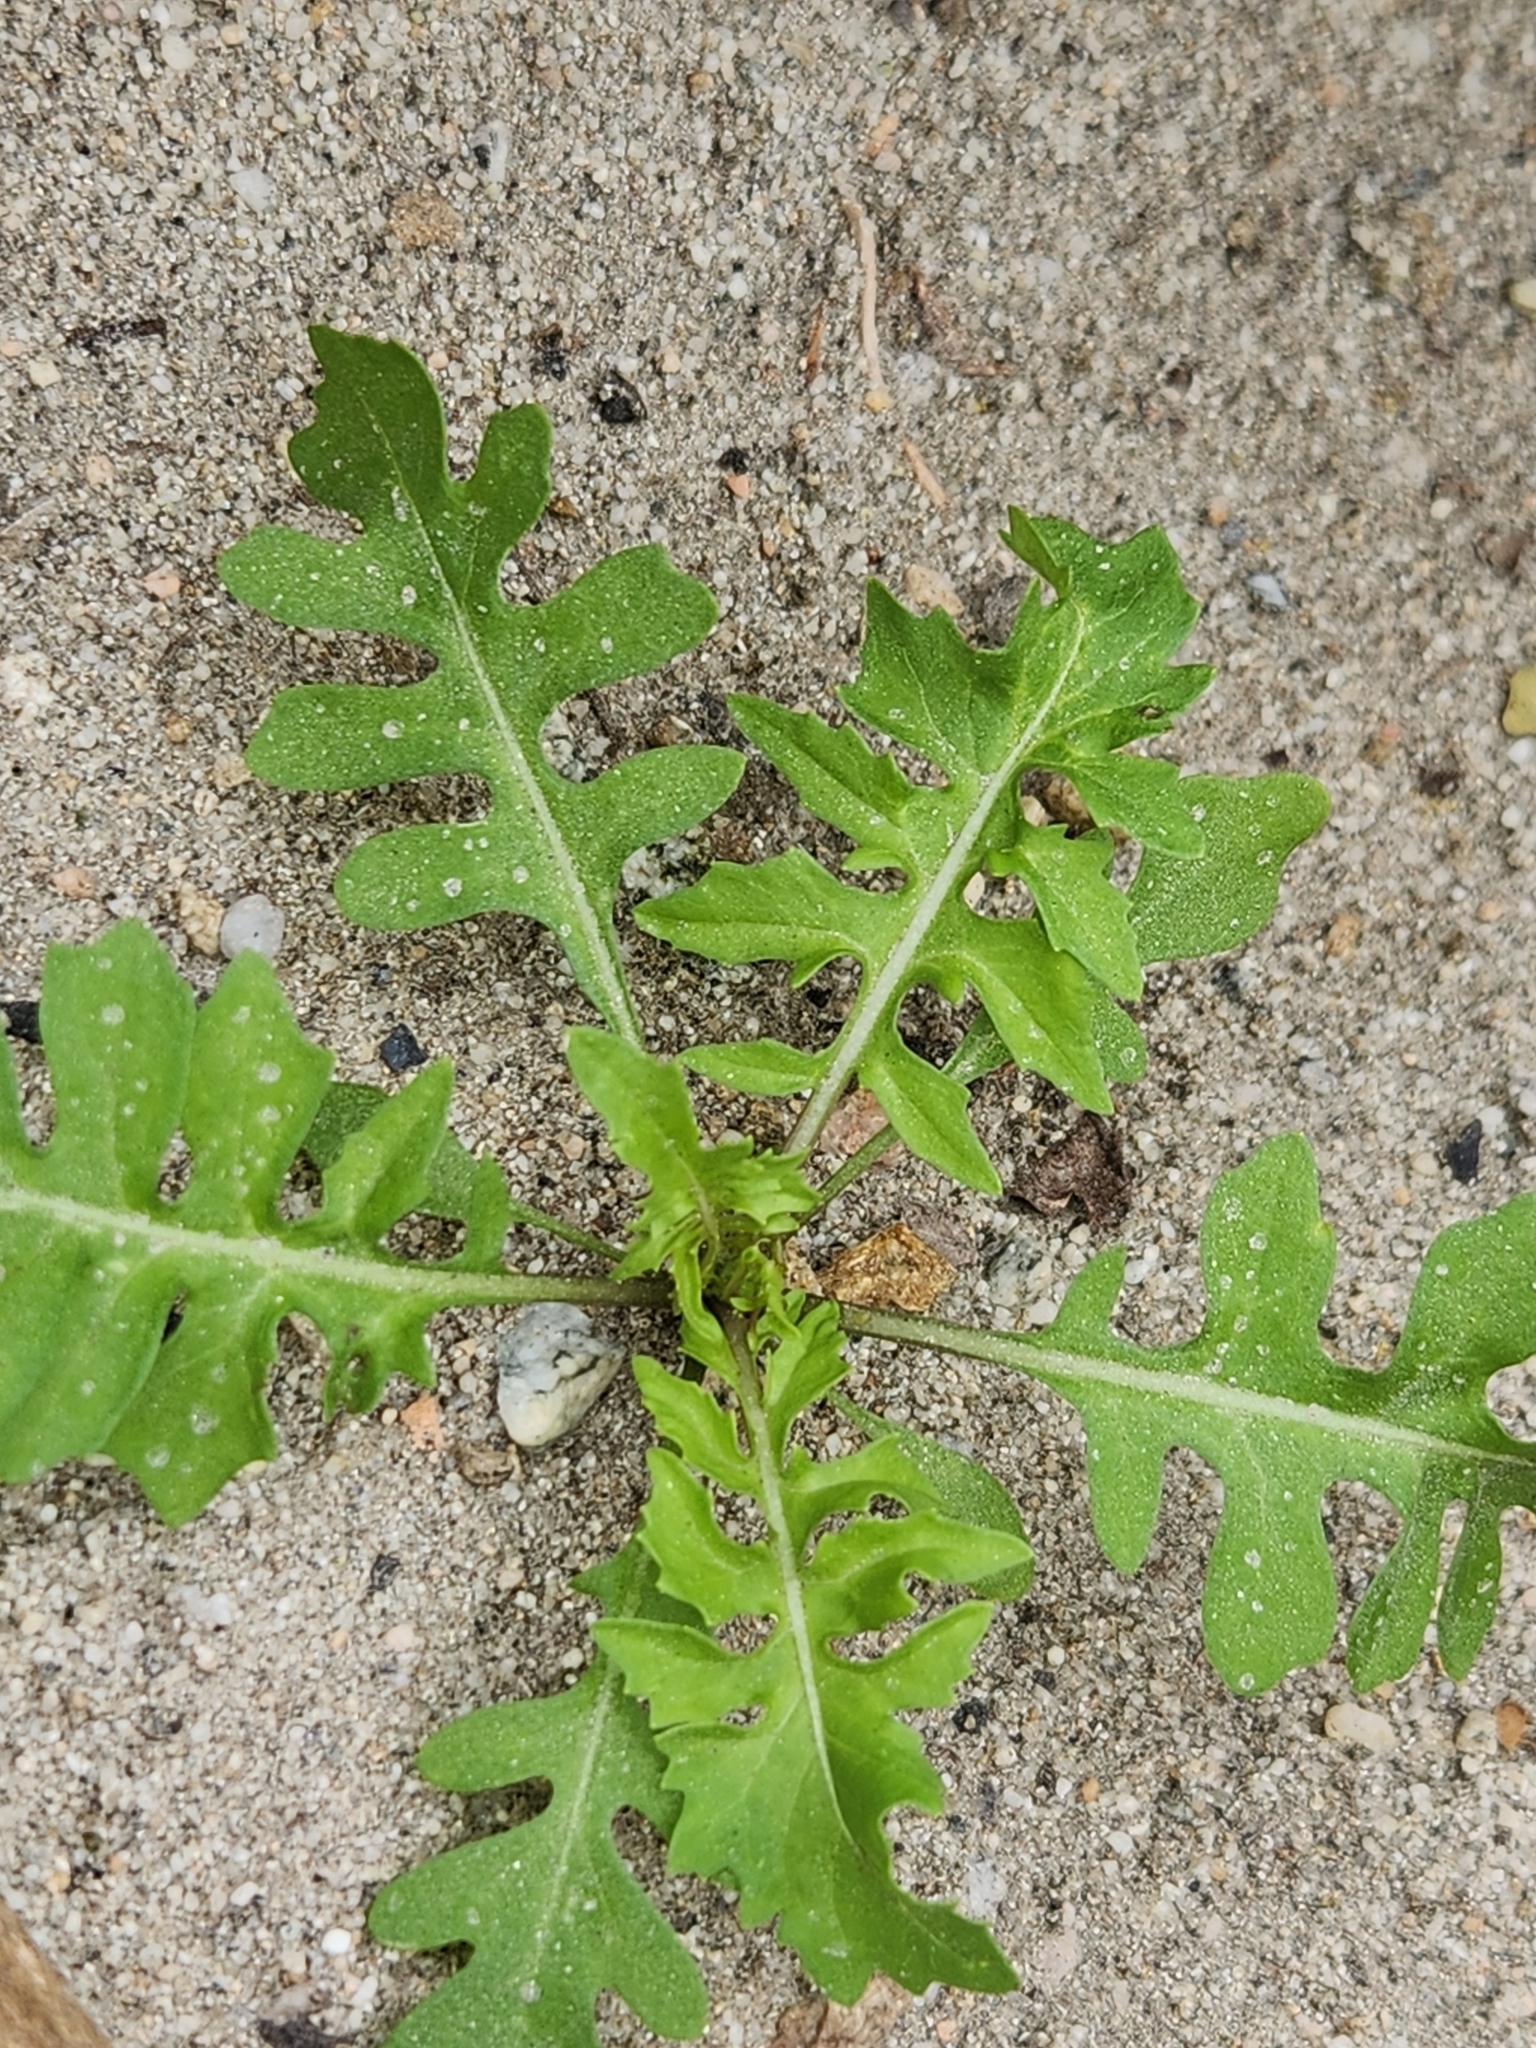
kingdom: Plantae
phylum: Tracheophyta
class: Magnoliopsida
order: Brassicales
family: Brassicaceae
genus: Sisymbrium
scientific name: Sisymbrium irio
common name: London rocket
